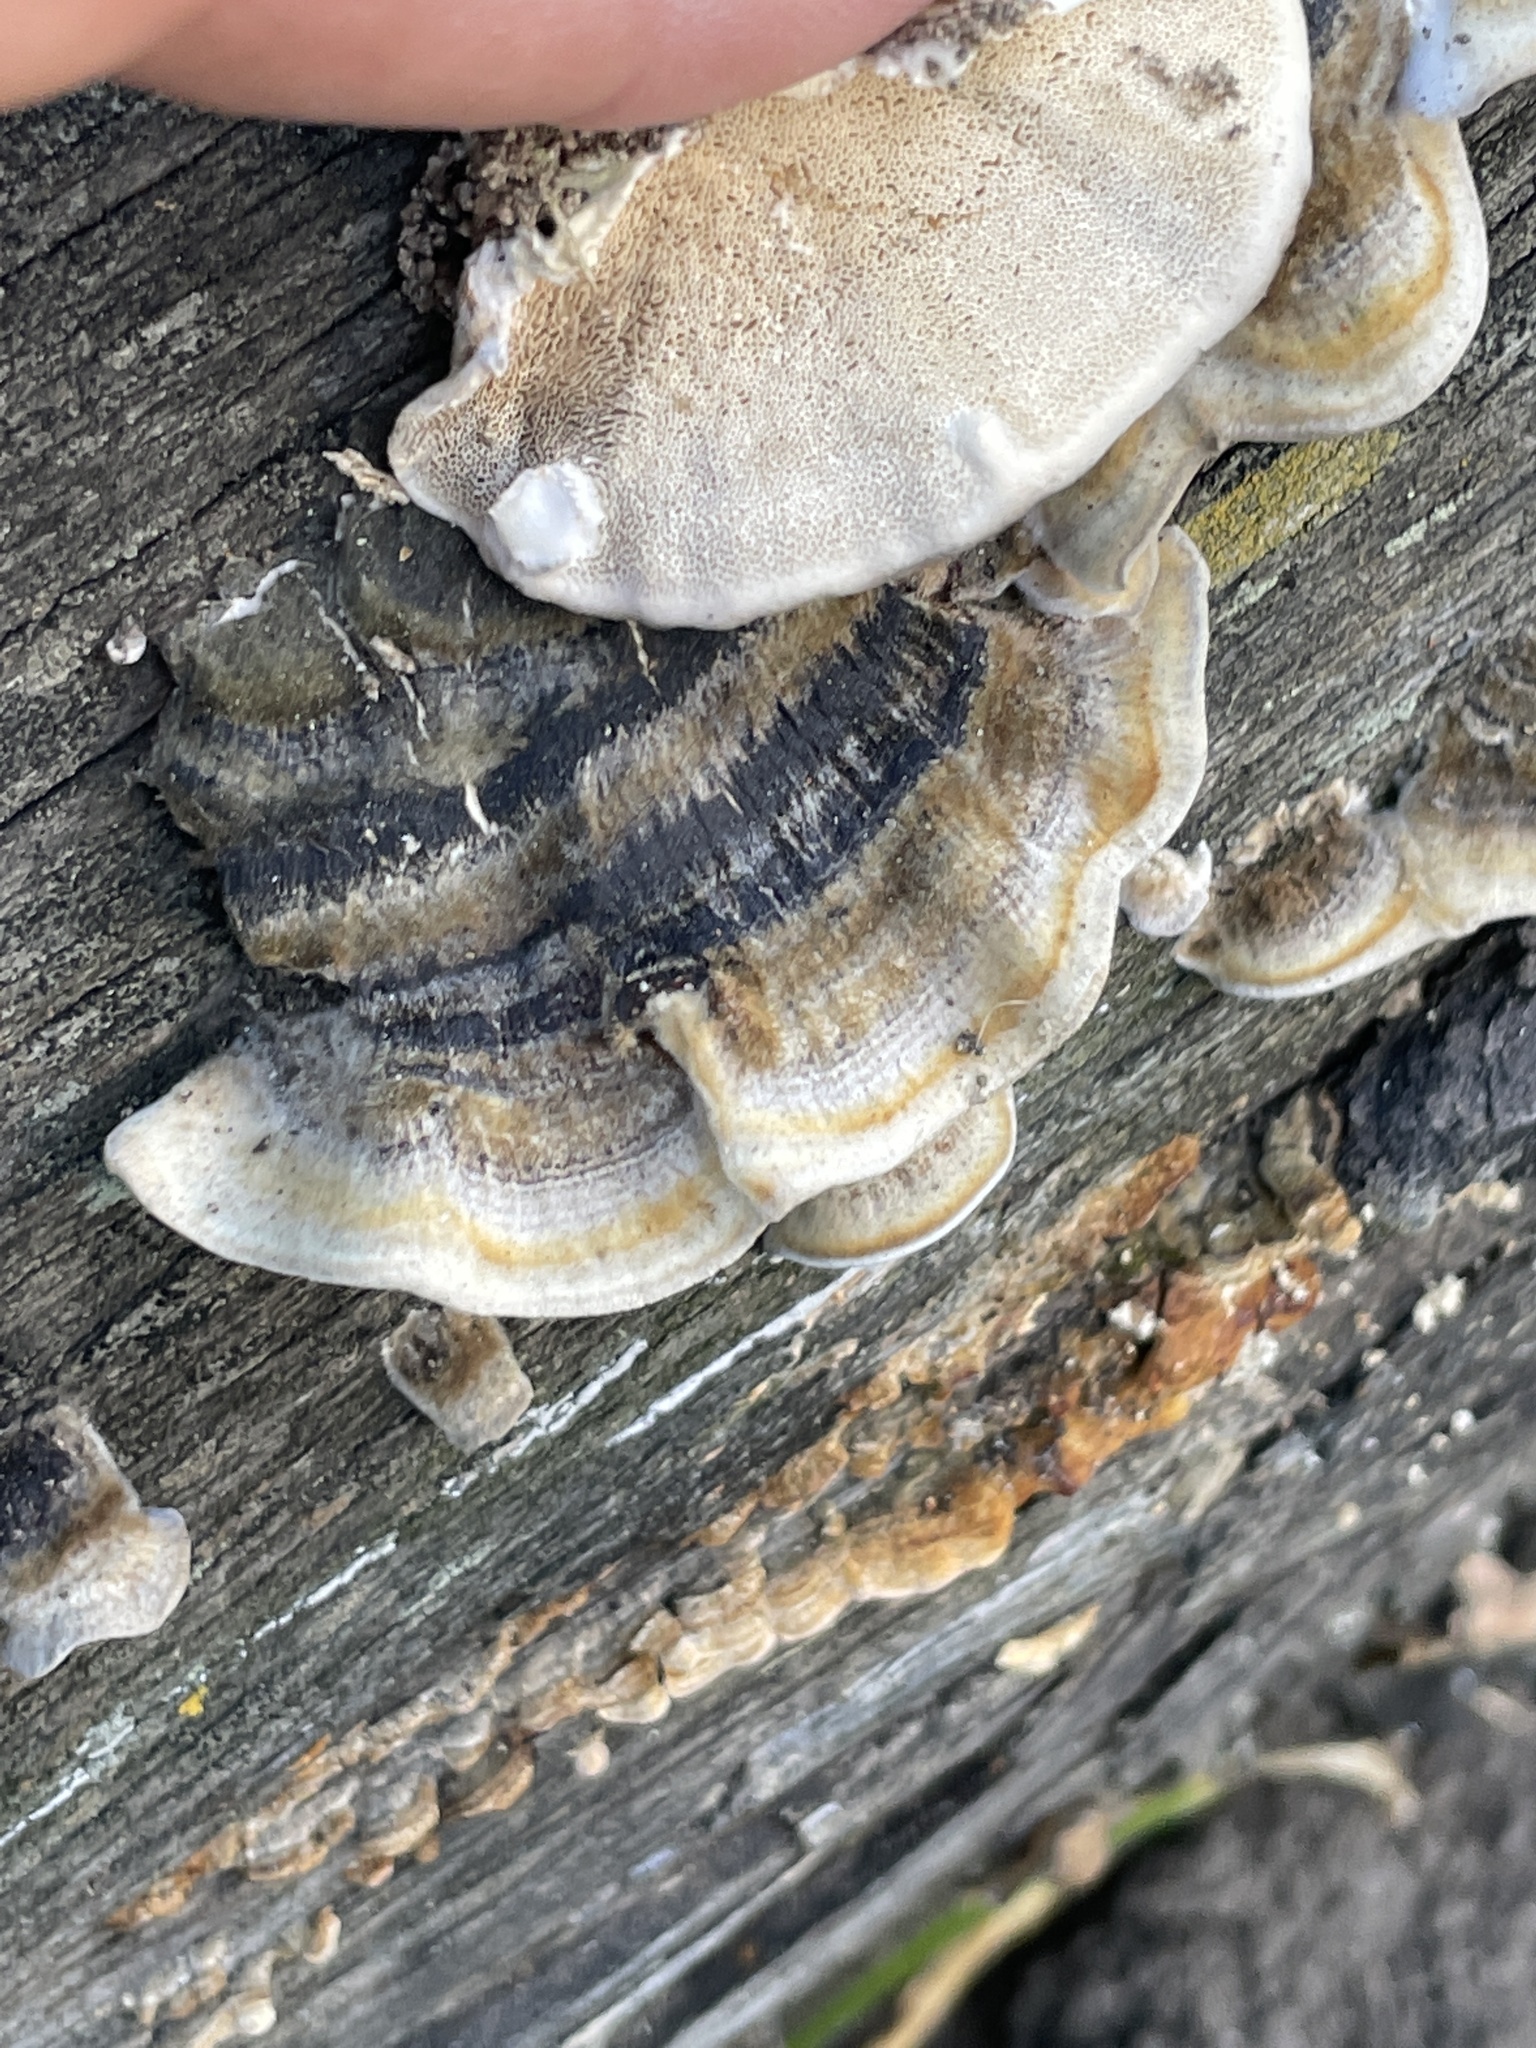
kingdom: Fungi
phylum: Basidiomycota
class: Agaricomycetes
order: Polyporales
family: Polyporaceae
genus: Trametes
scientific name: Trametes versicolor
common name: Turkeytail
